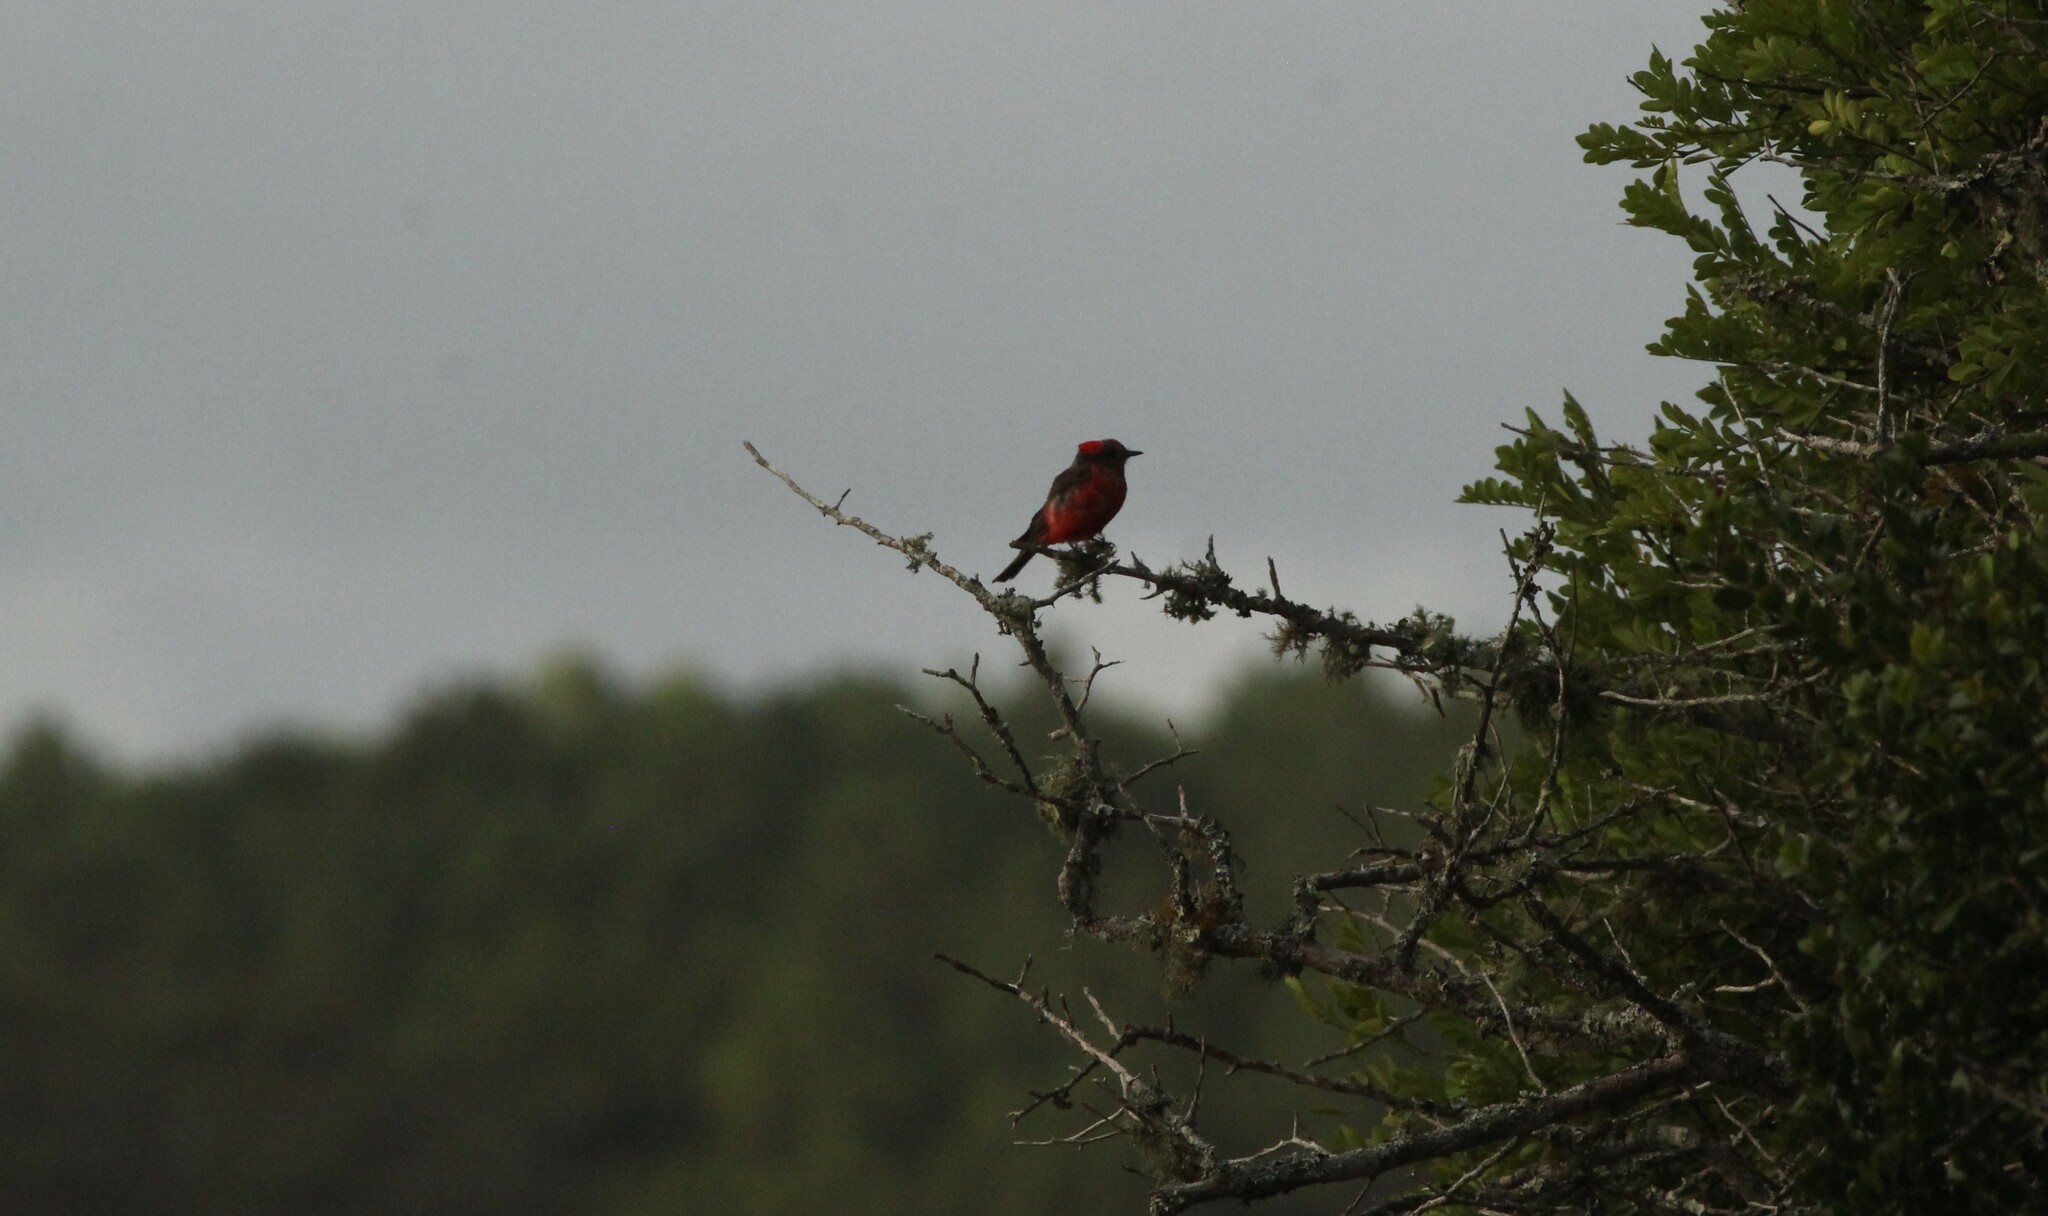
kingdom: Animalia
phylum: Chordata
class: Aves
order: Passeriformes
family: Tyrannidae
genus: Pyrocephalus
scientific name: Pyrocephalus rubinus
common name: Vermilion flycatcher
